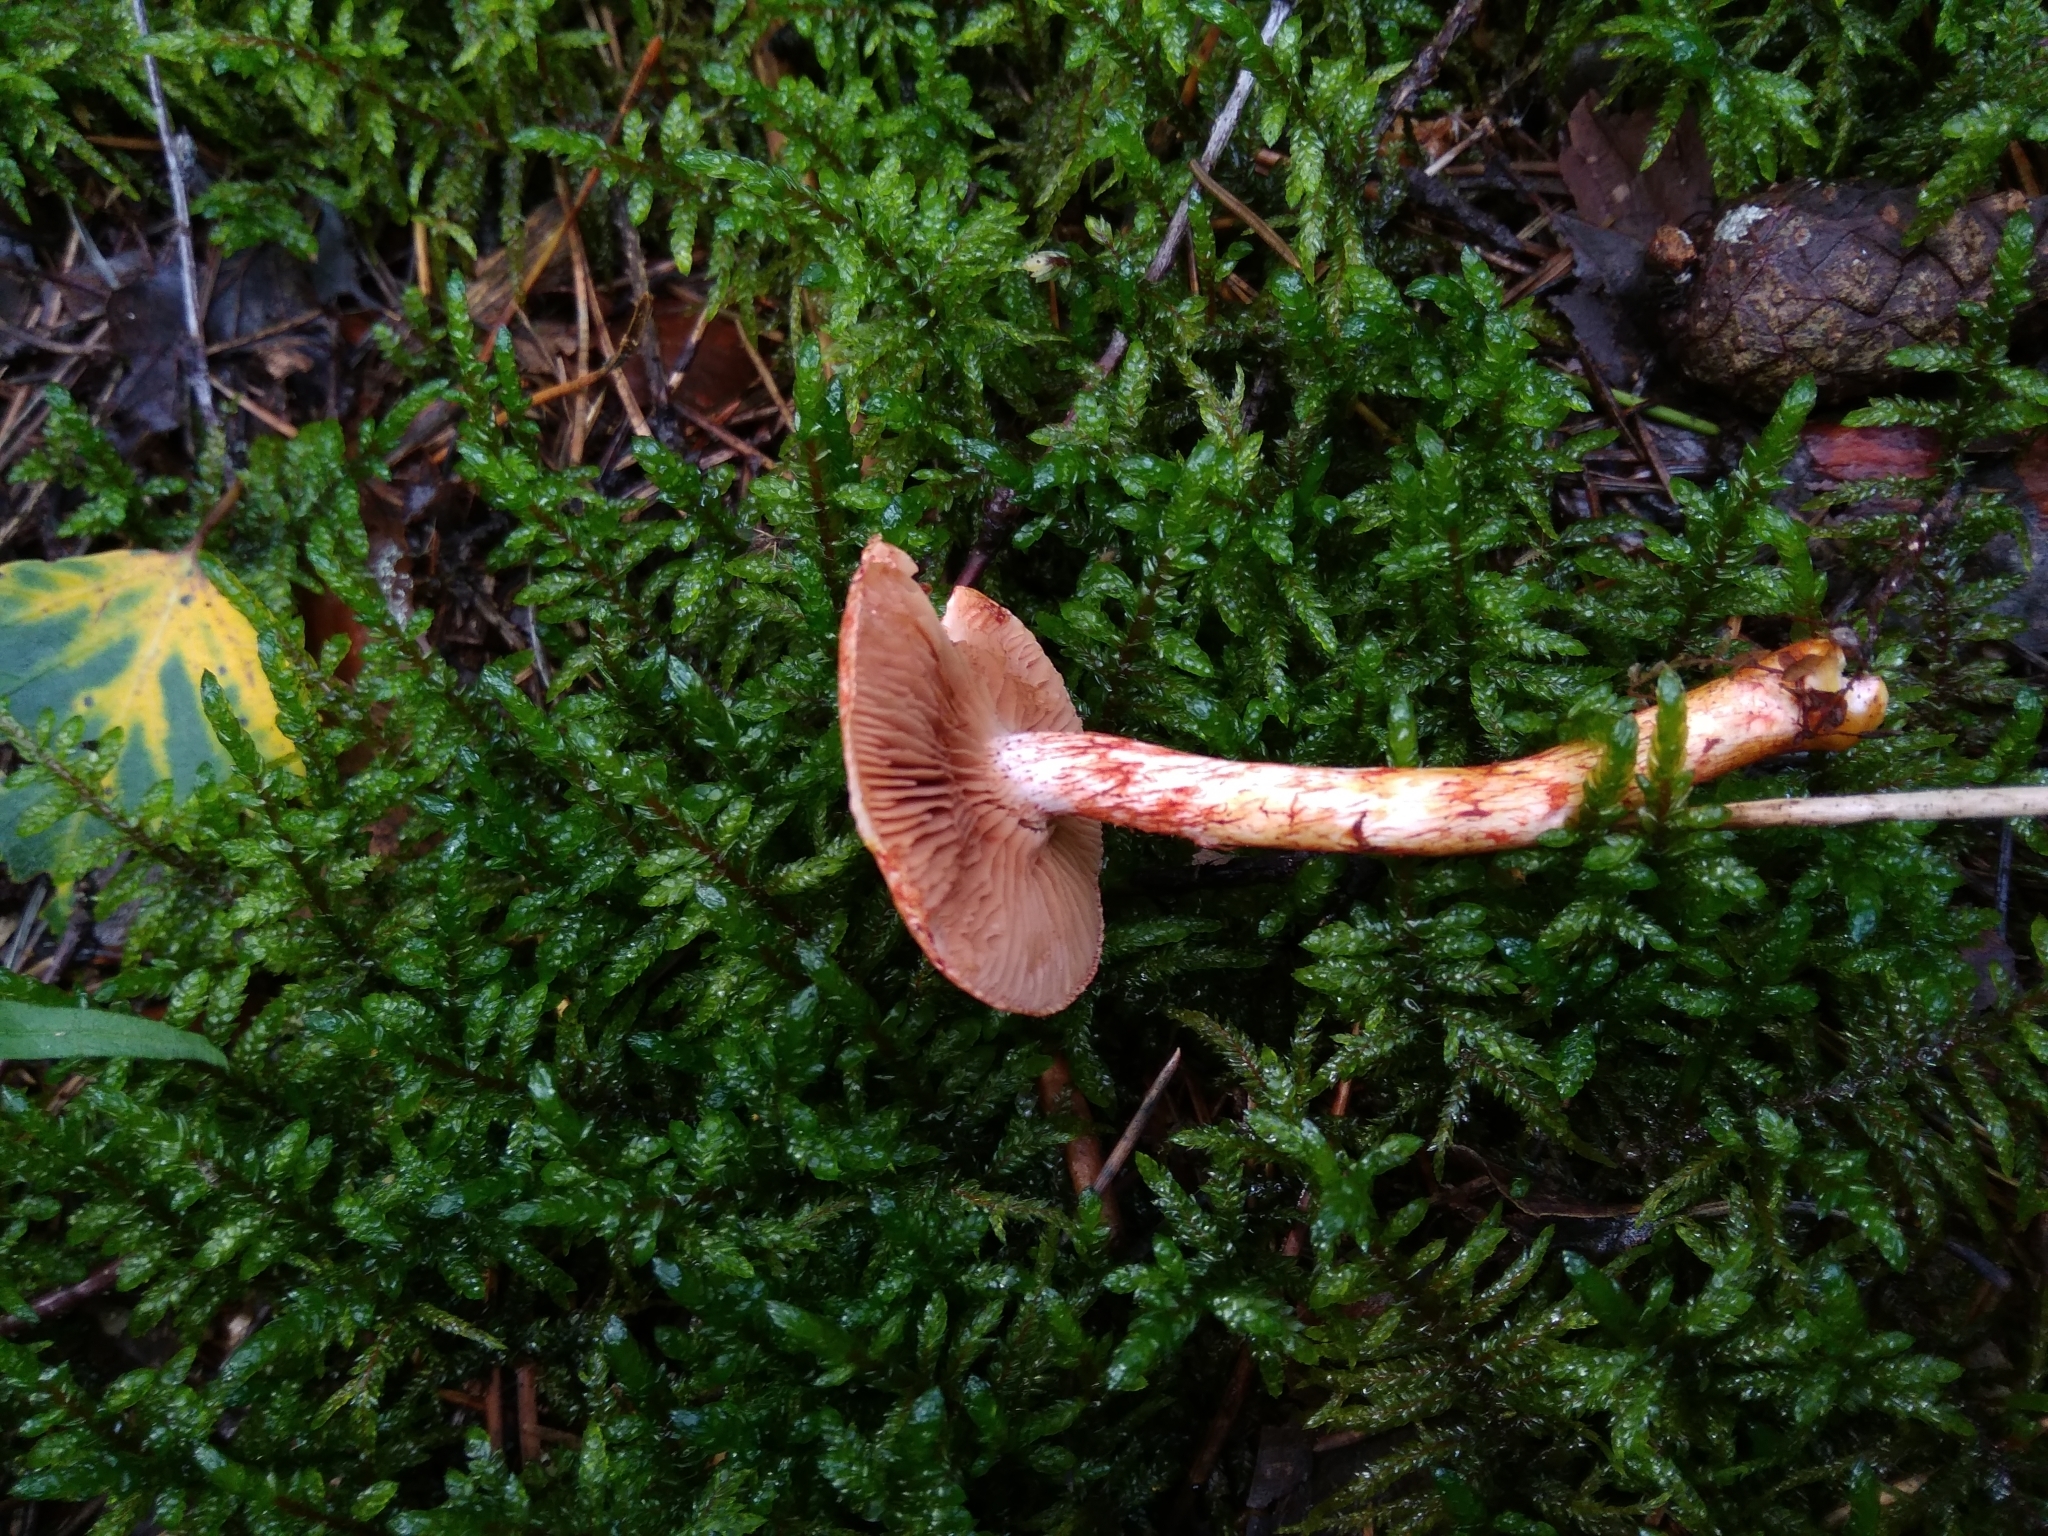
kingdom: Fungi
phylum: Basidiomycota
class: Agaricomycetes
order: Agaricales
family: Cortinariaceae
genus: Cortinarius
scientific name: Cortinarius bolaris
